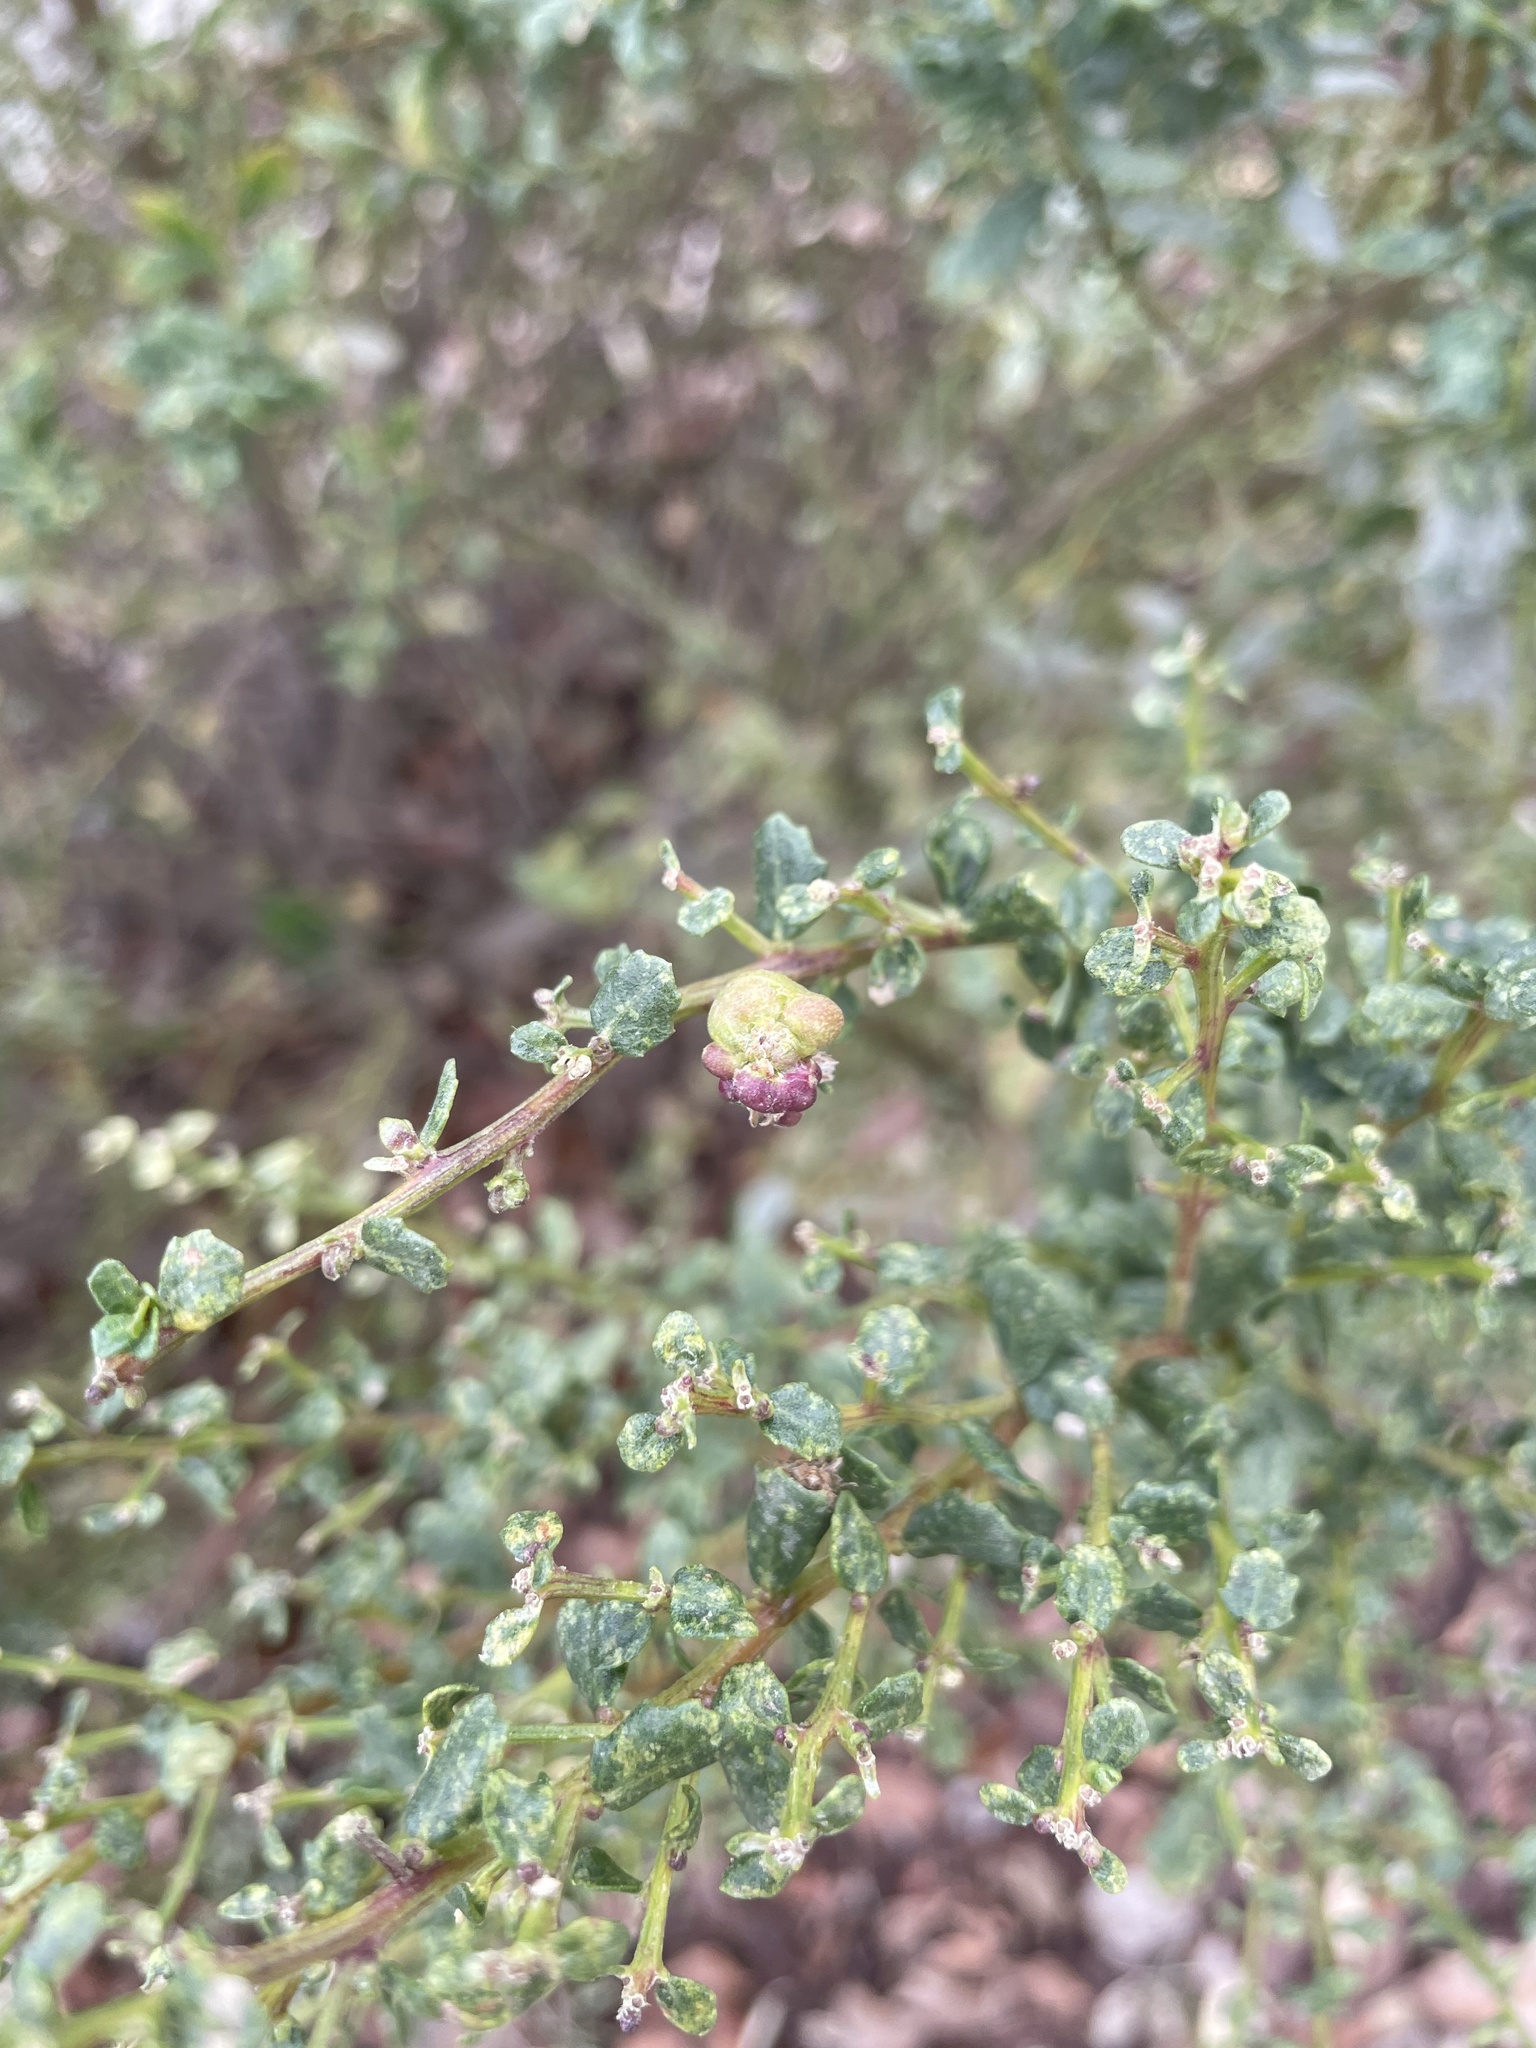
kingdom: Animalia
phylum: Arthropoda
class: Insecta
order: Diptera
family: Cecidomyiidae
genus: Rhopalomyia
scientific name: Rhopalomyia californica
